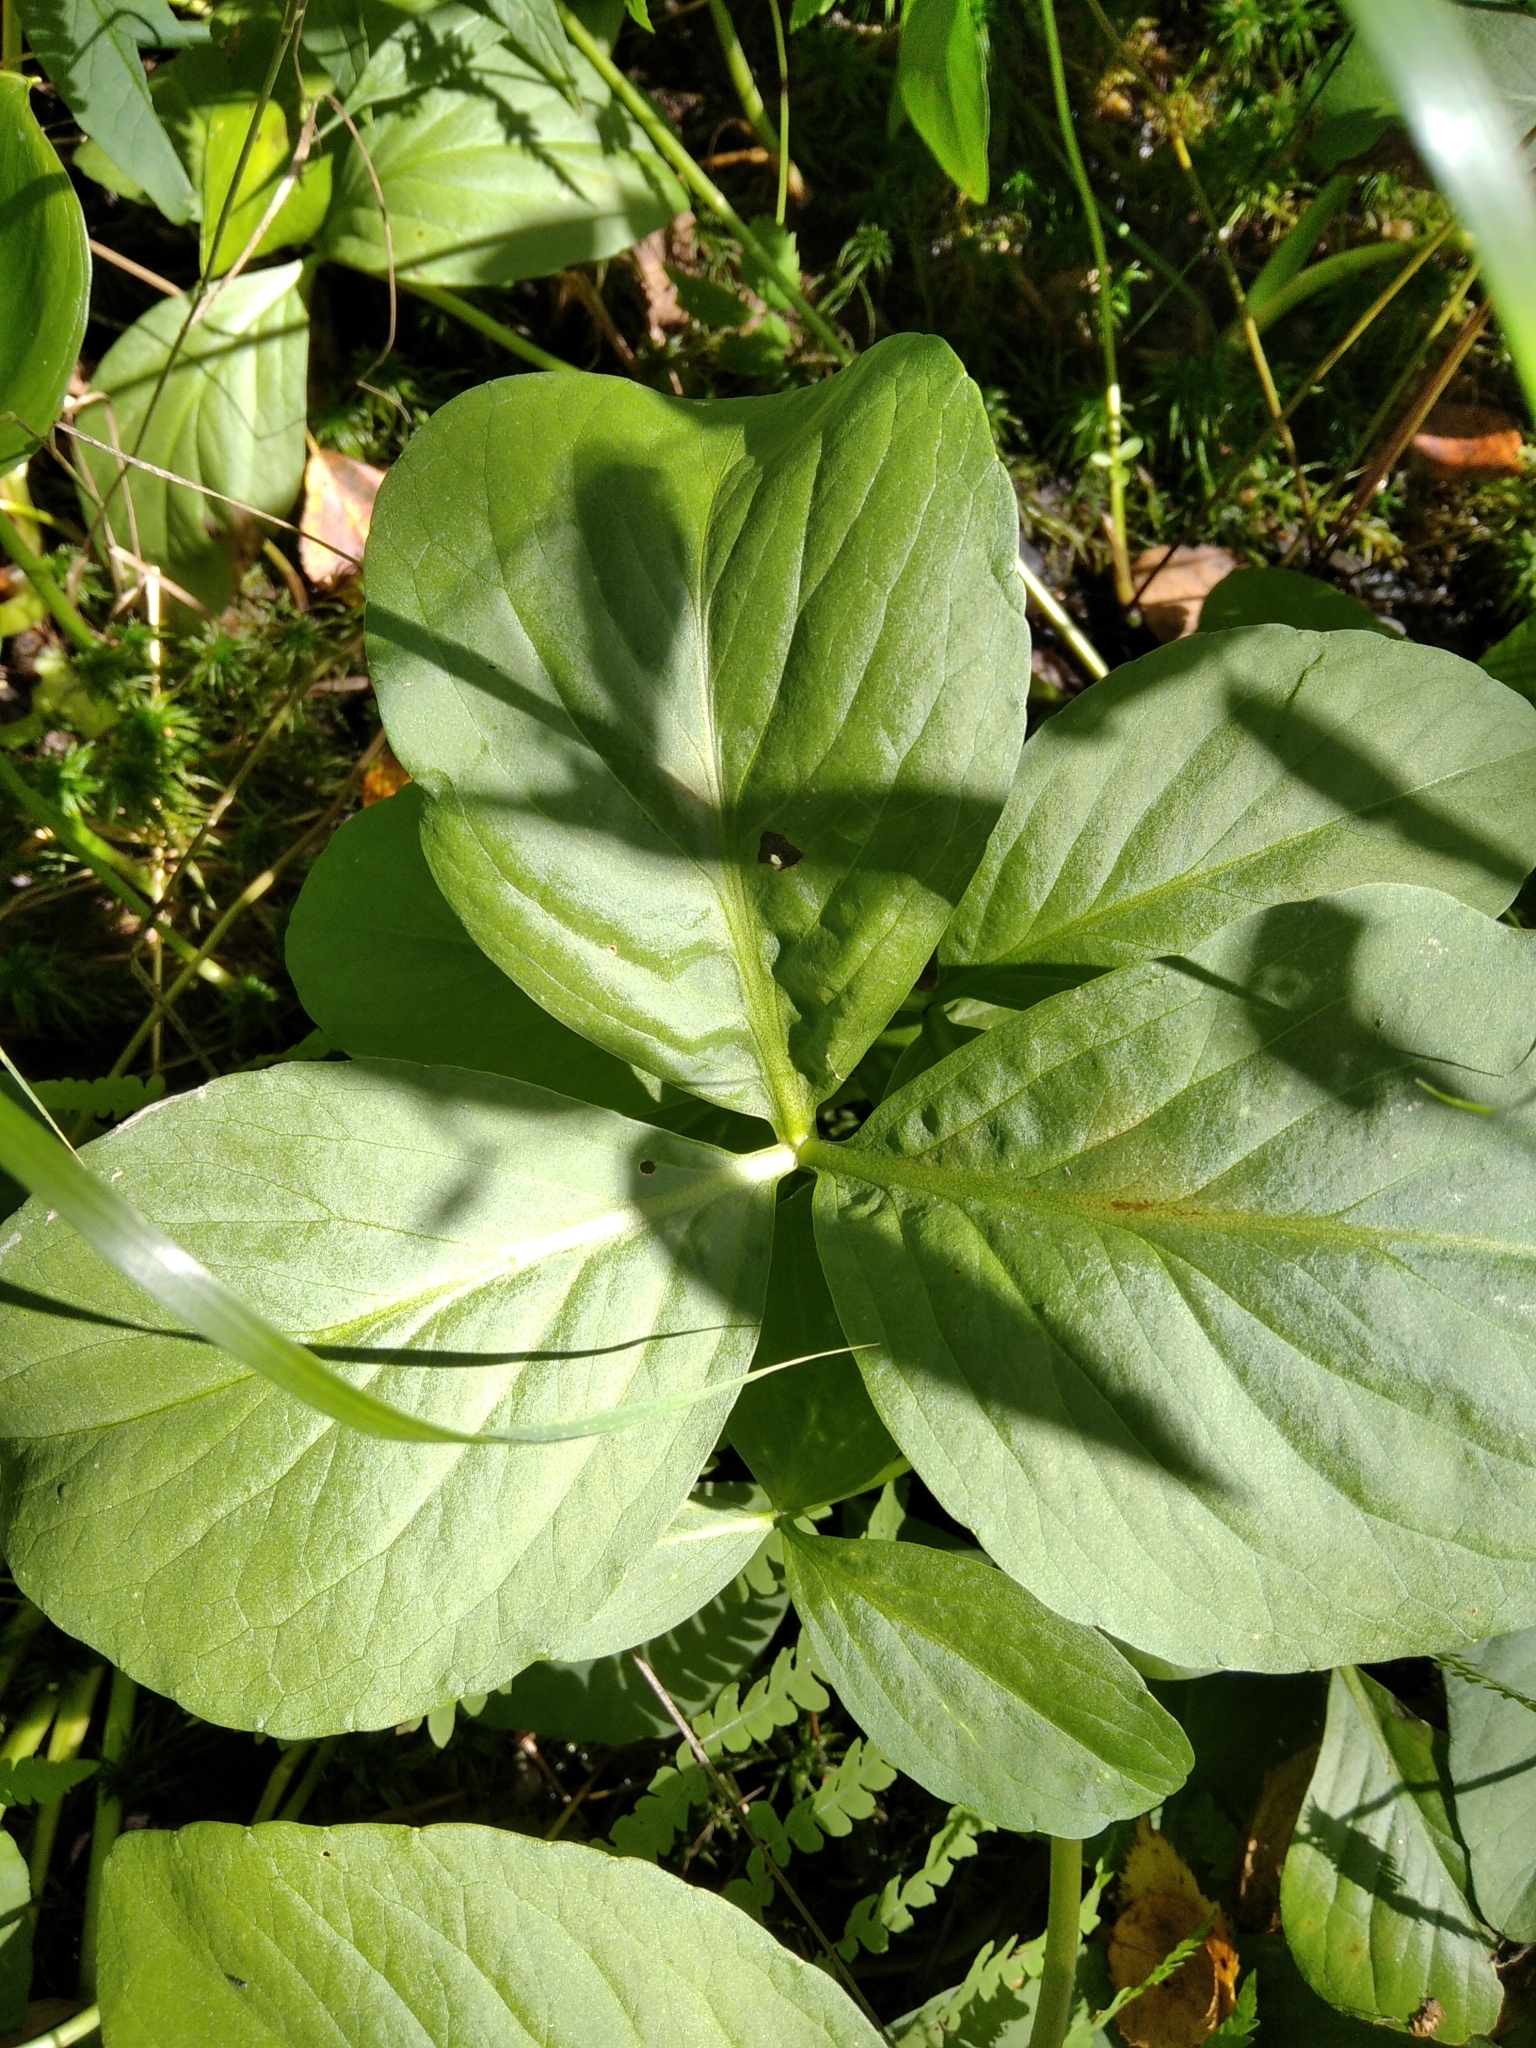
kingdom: Plantae
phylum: Tracheophyta
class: Magnoliopsida
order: Asterales
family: Menyanthaceae
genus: Menyanthes
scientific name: Menyanthes trifoliata
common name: Bogbean
